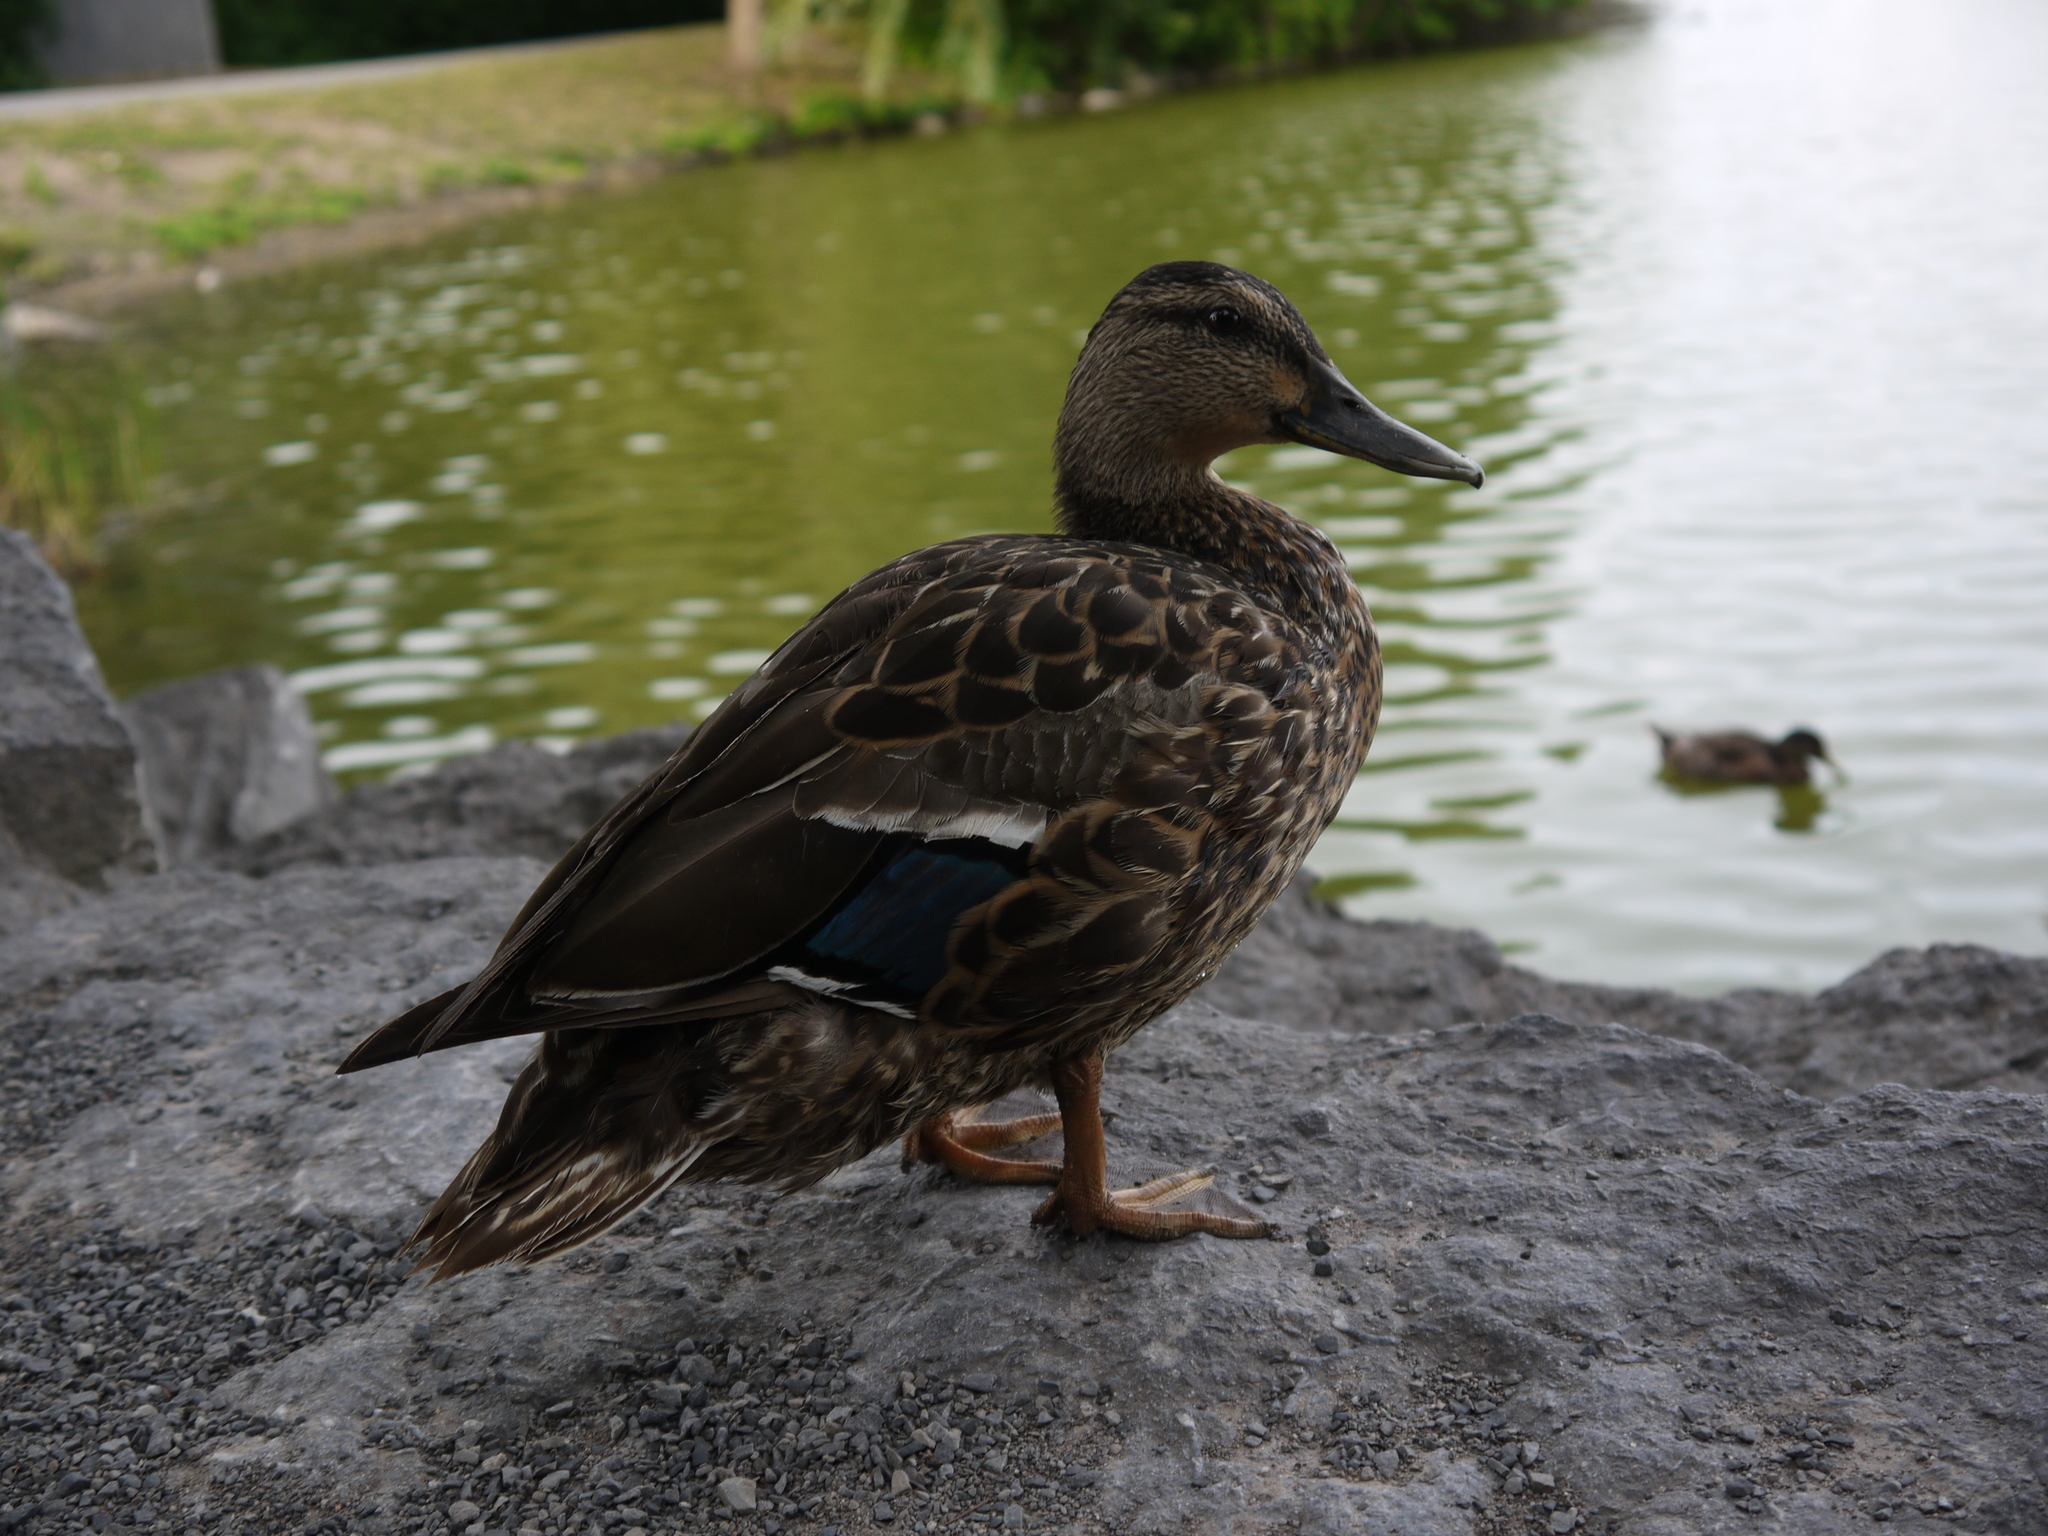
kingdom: Animalia
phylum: Chordata
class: Aves
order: Anseriformes
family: Anatidae
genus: Anas
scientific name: Anas platyrhynchos
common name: Mallard
